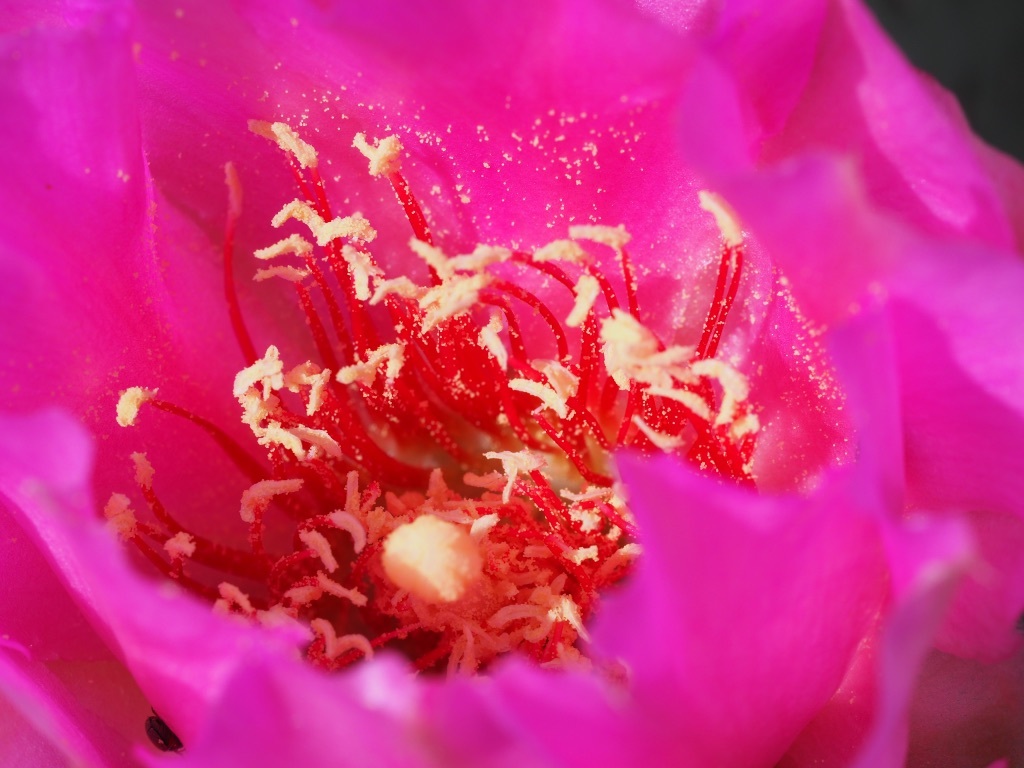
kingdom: Plantae
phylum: Tracheophyta
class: Magnoliopsida
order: Caryophyllales
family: Cactaceae
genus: Opuntia
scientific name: Opuntia basilaris
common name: Beavertail prickly-pear
